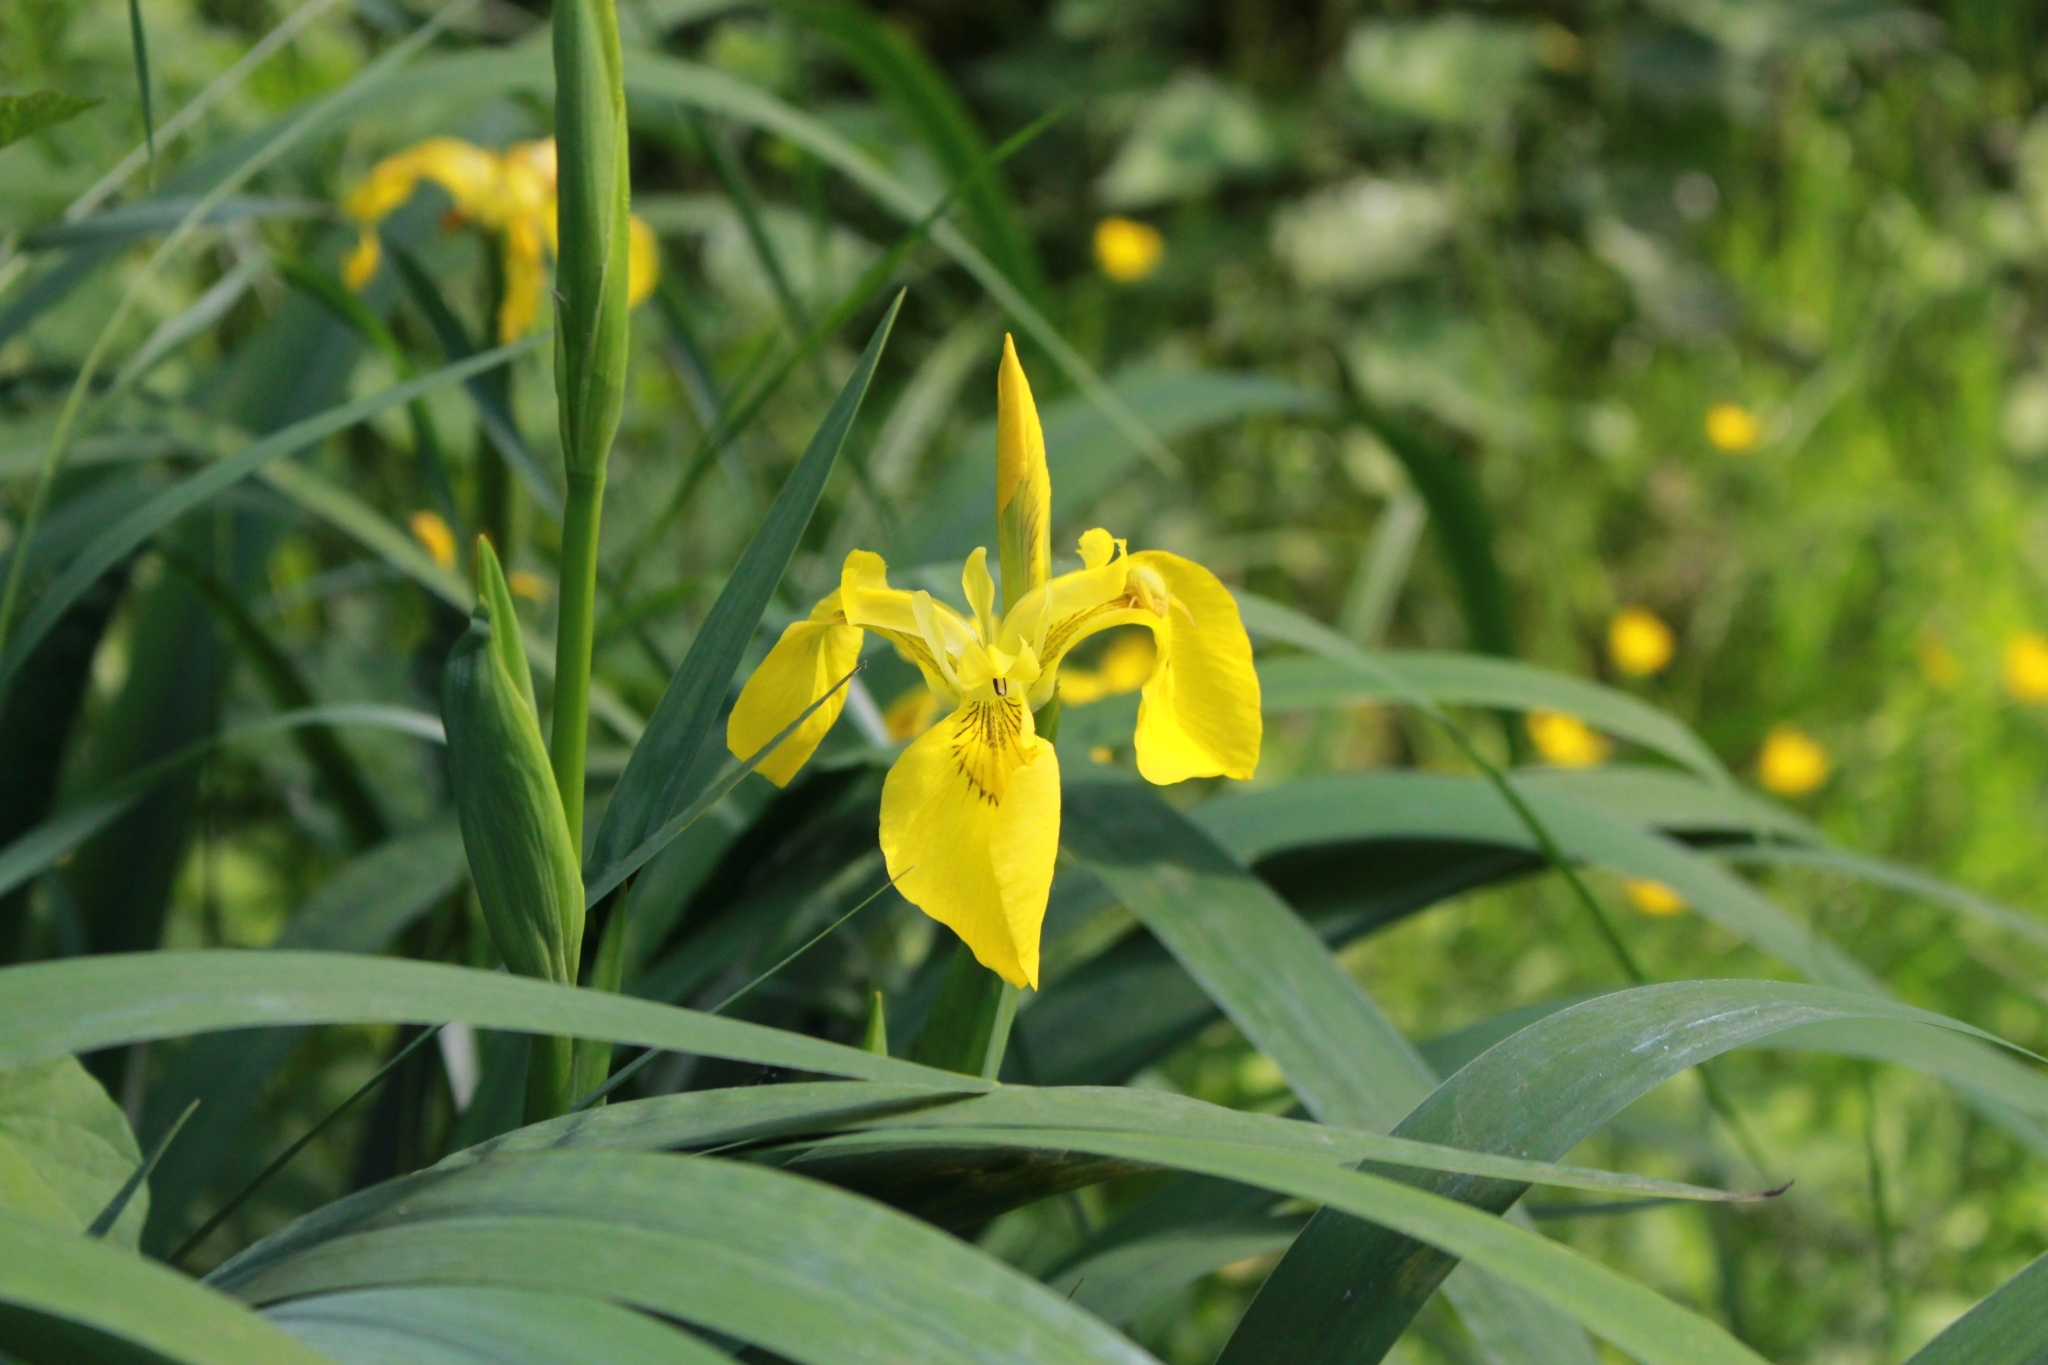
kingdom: Plantae
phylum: Tracheophyta
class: Liliopsida
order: Asparagales
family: Iridaceae
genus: Iris
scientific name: Iris pseudacorus
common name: Yellow flag
